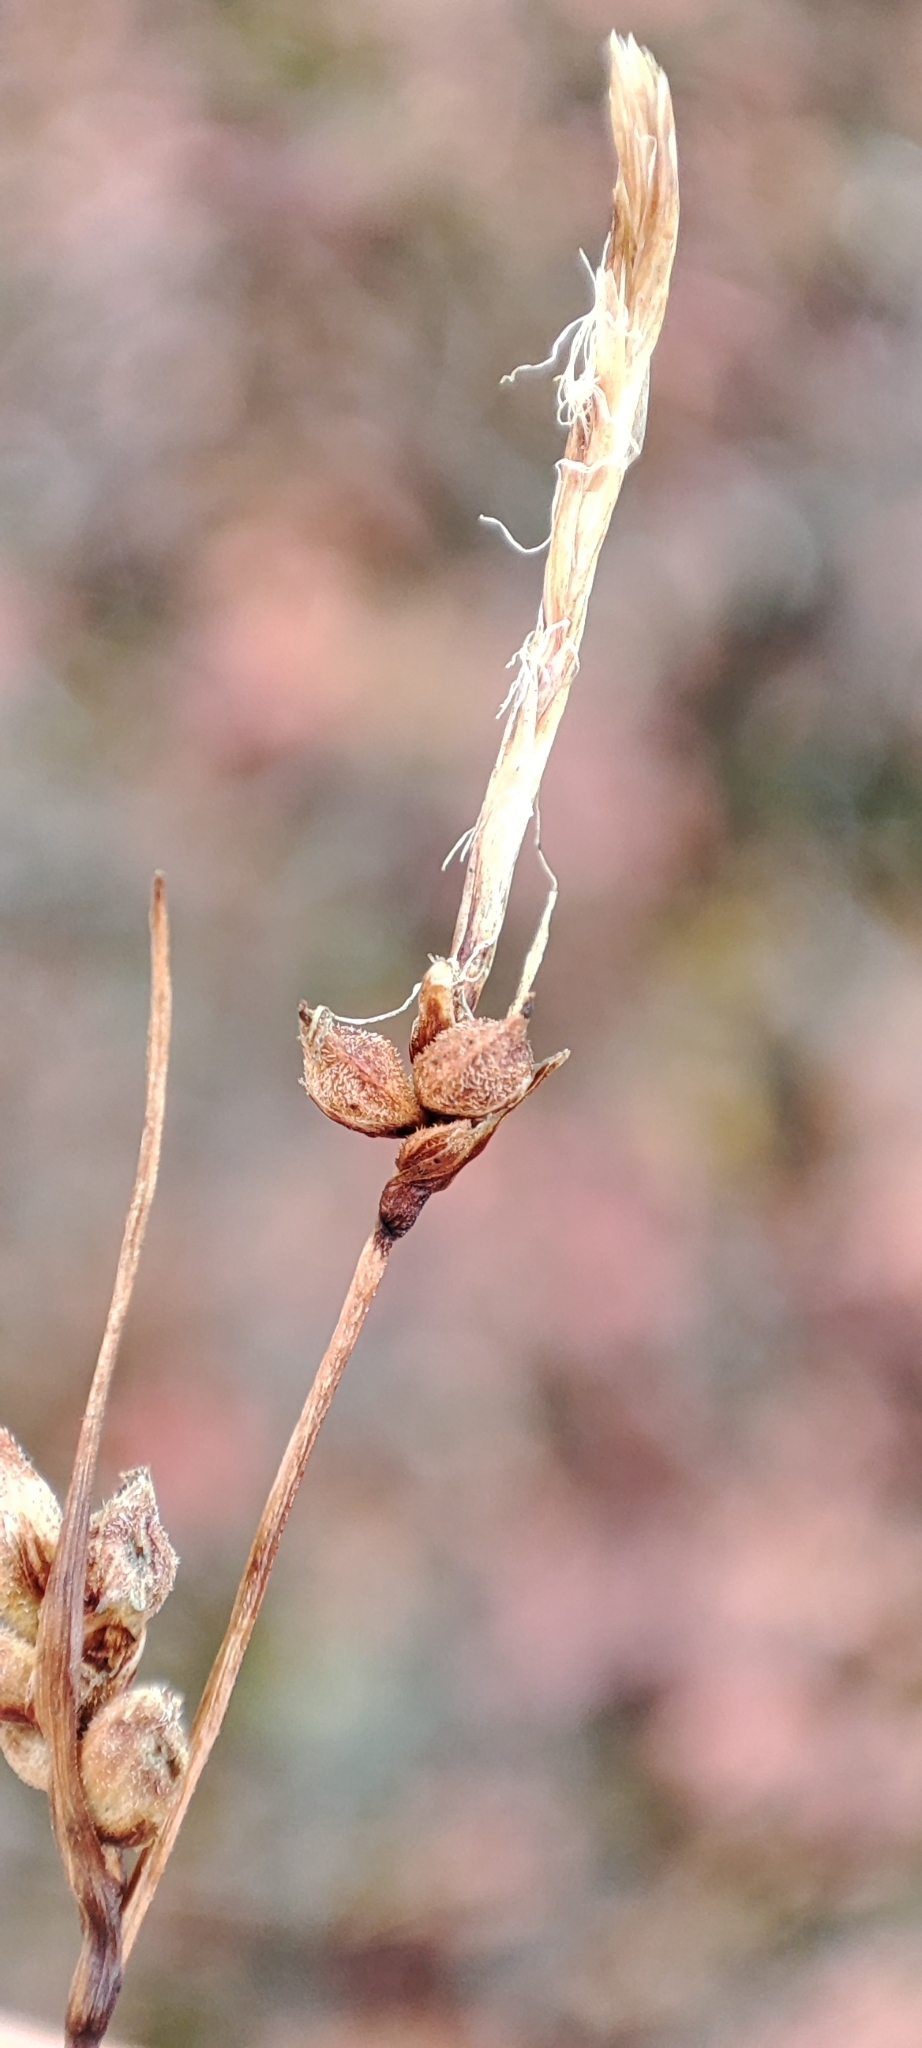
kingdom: Plantae
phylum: Tracheophyta
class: Liliopsida
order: Poales
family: Cyperaceae
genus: Carex
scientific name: Carex globularis
